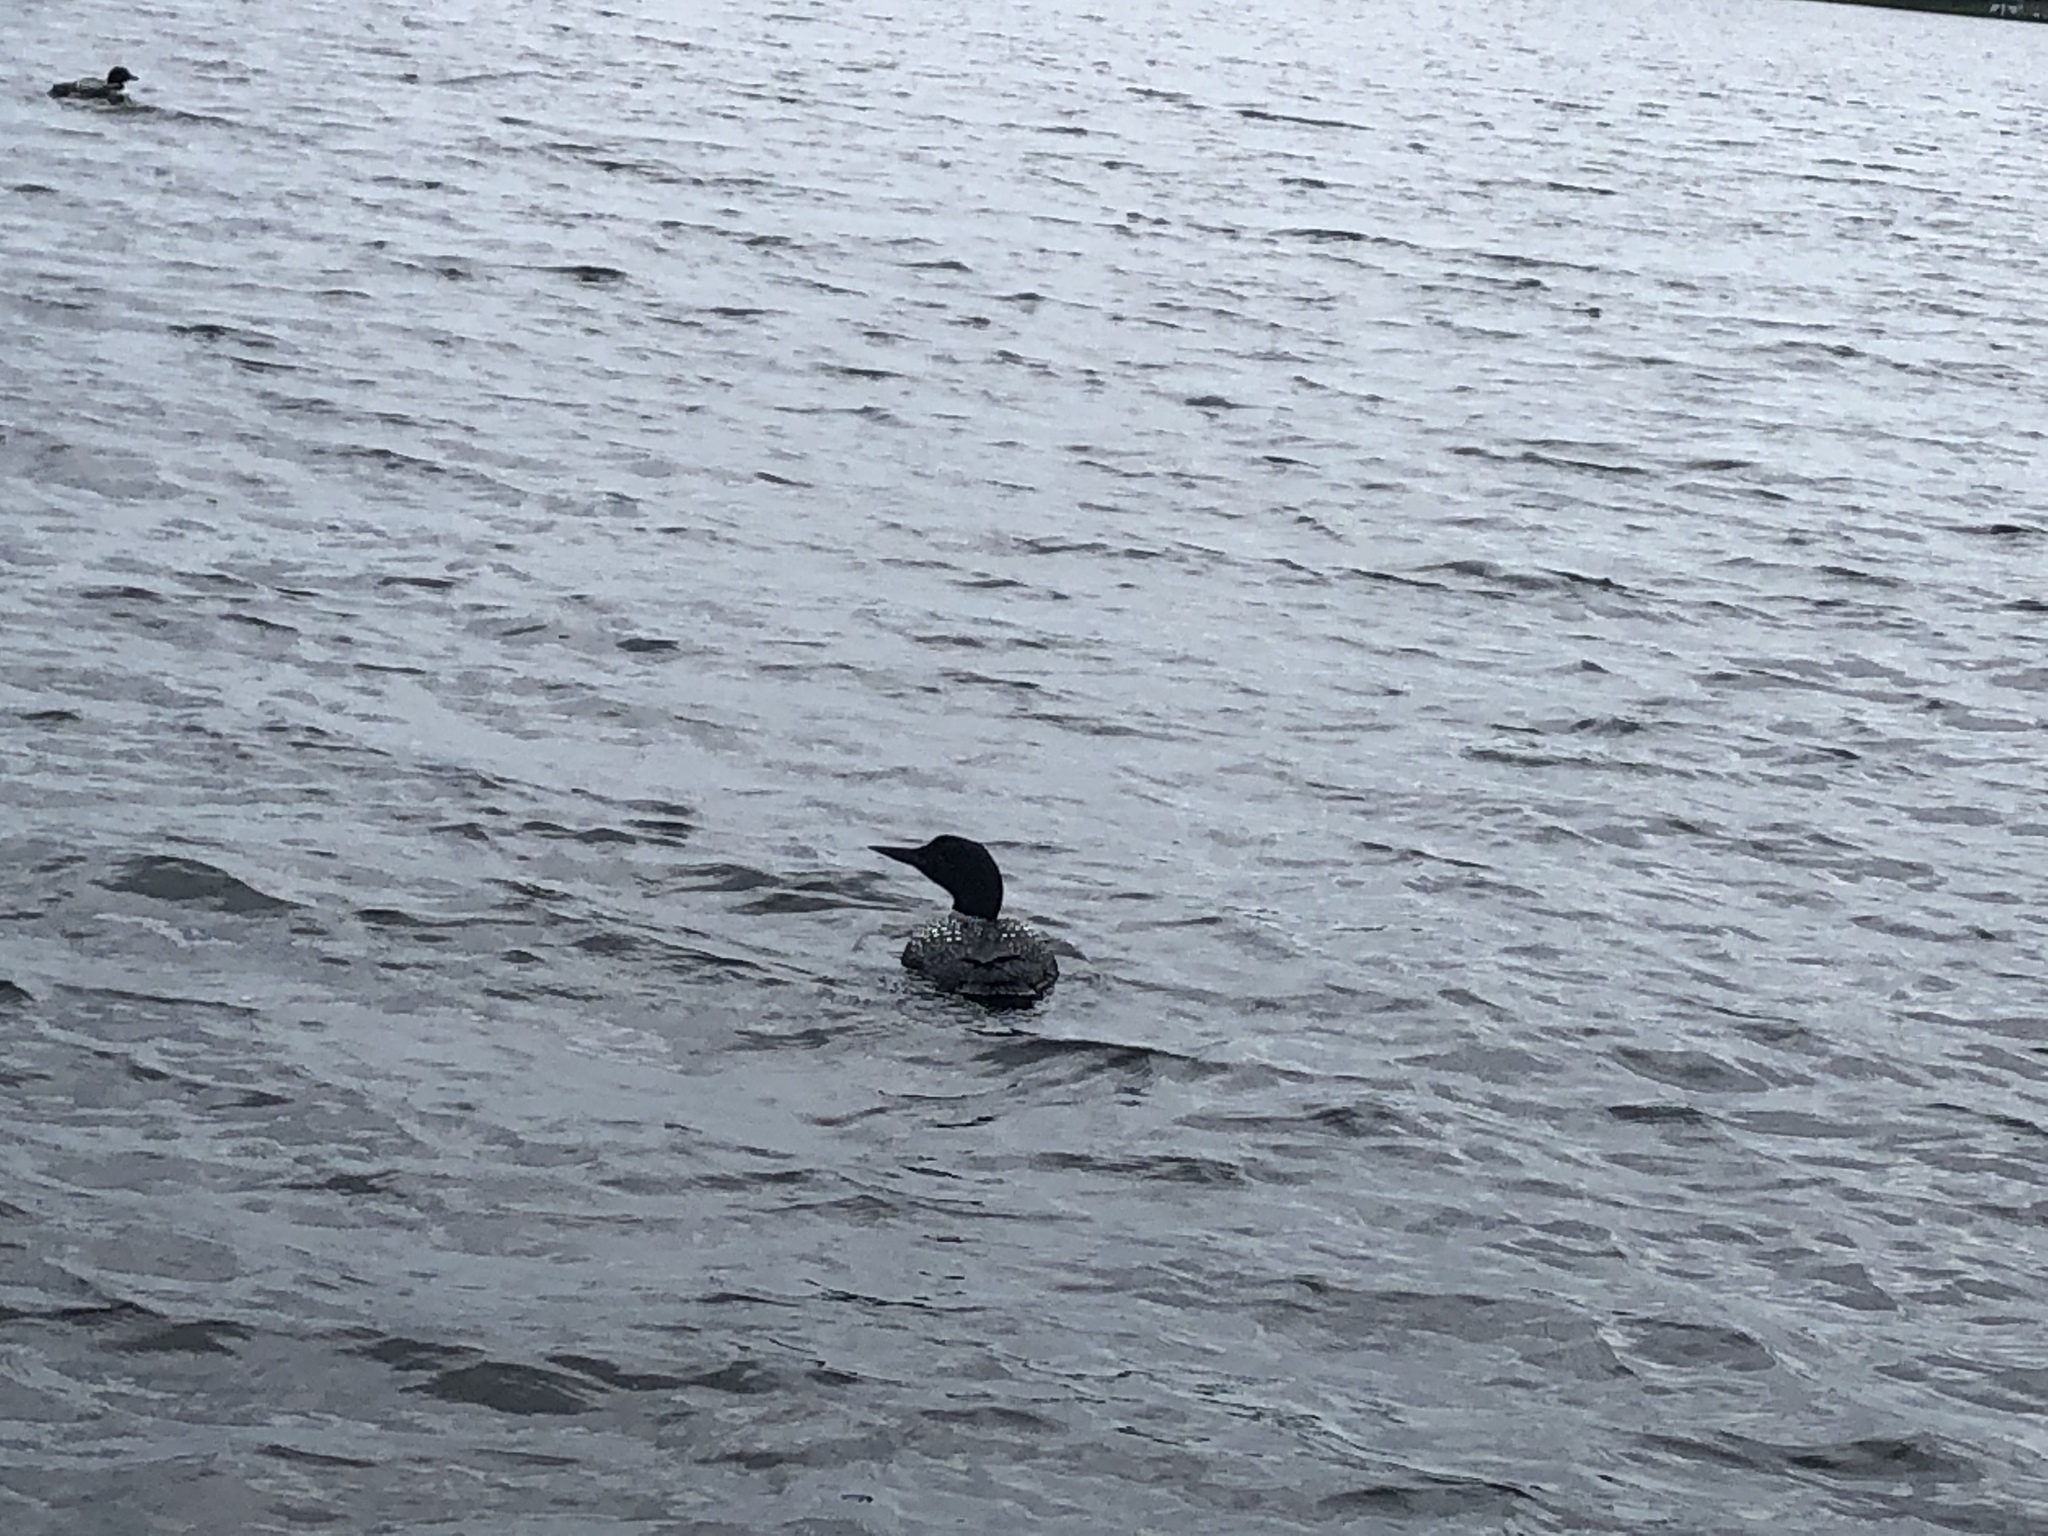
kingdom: Animalia
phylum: Chordata
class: Aves
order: Gaviiformes
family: Gaviidae
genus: Gavia
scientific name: Gavia immer
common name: Common loon
